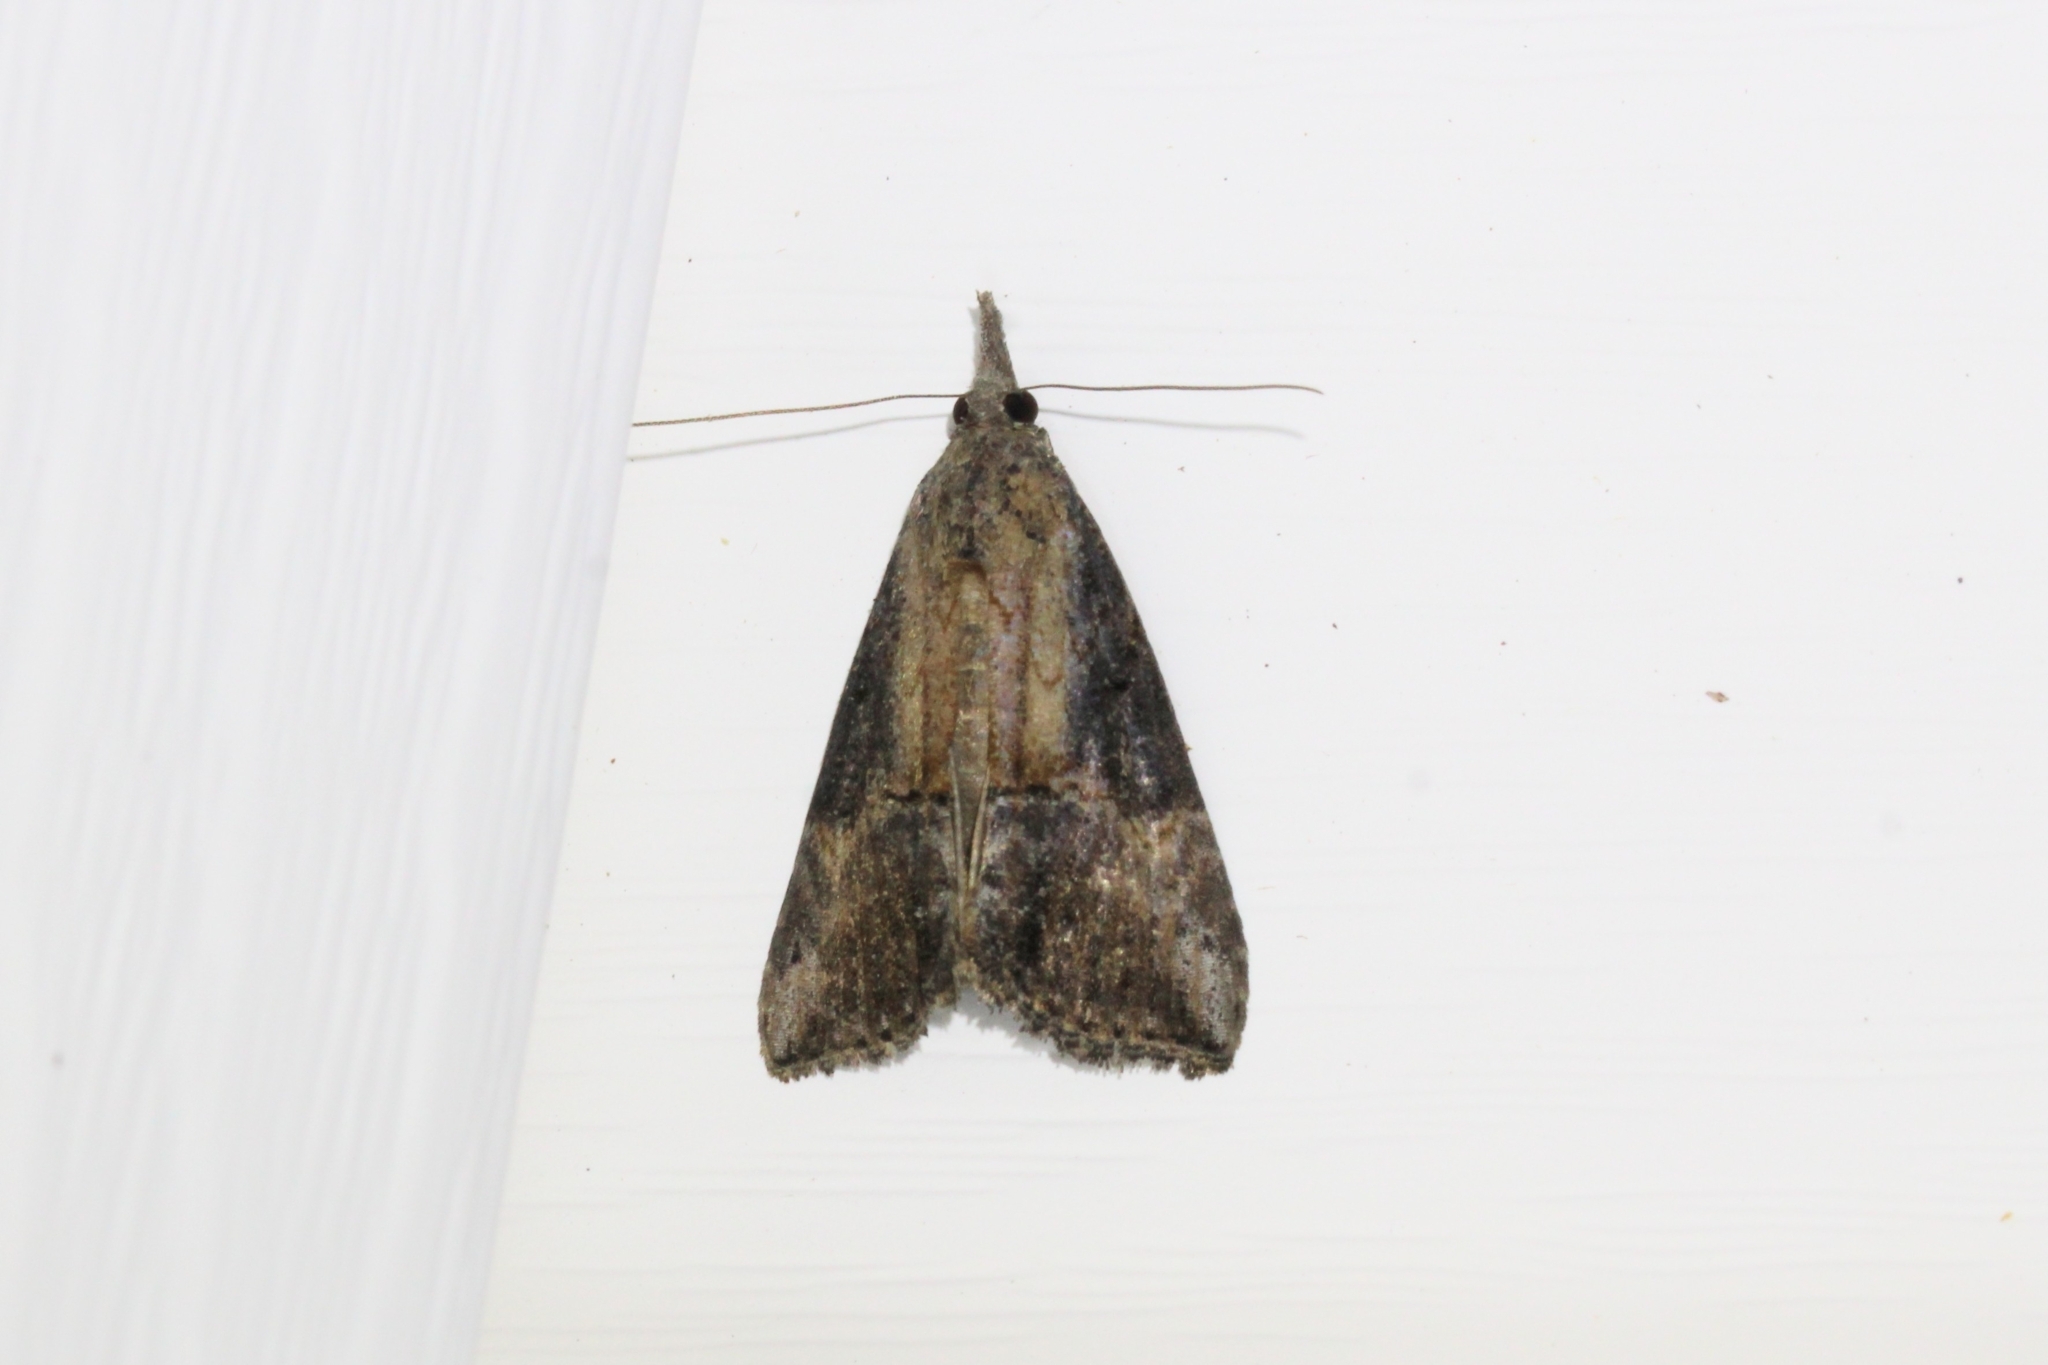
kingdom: Animalia
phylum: Arthropoda
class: Insecta
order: Lepidoptera
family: Erebidae
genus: Hypena
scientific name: Hypena scabra
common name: Green cloverworm
